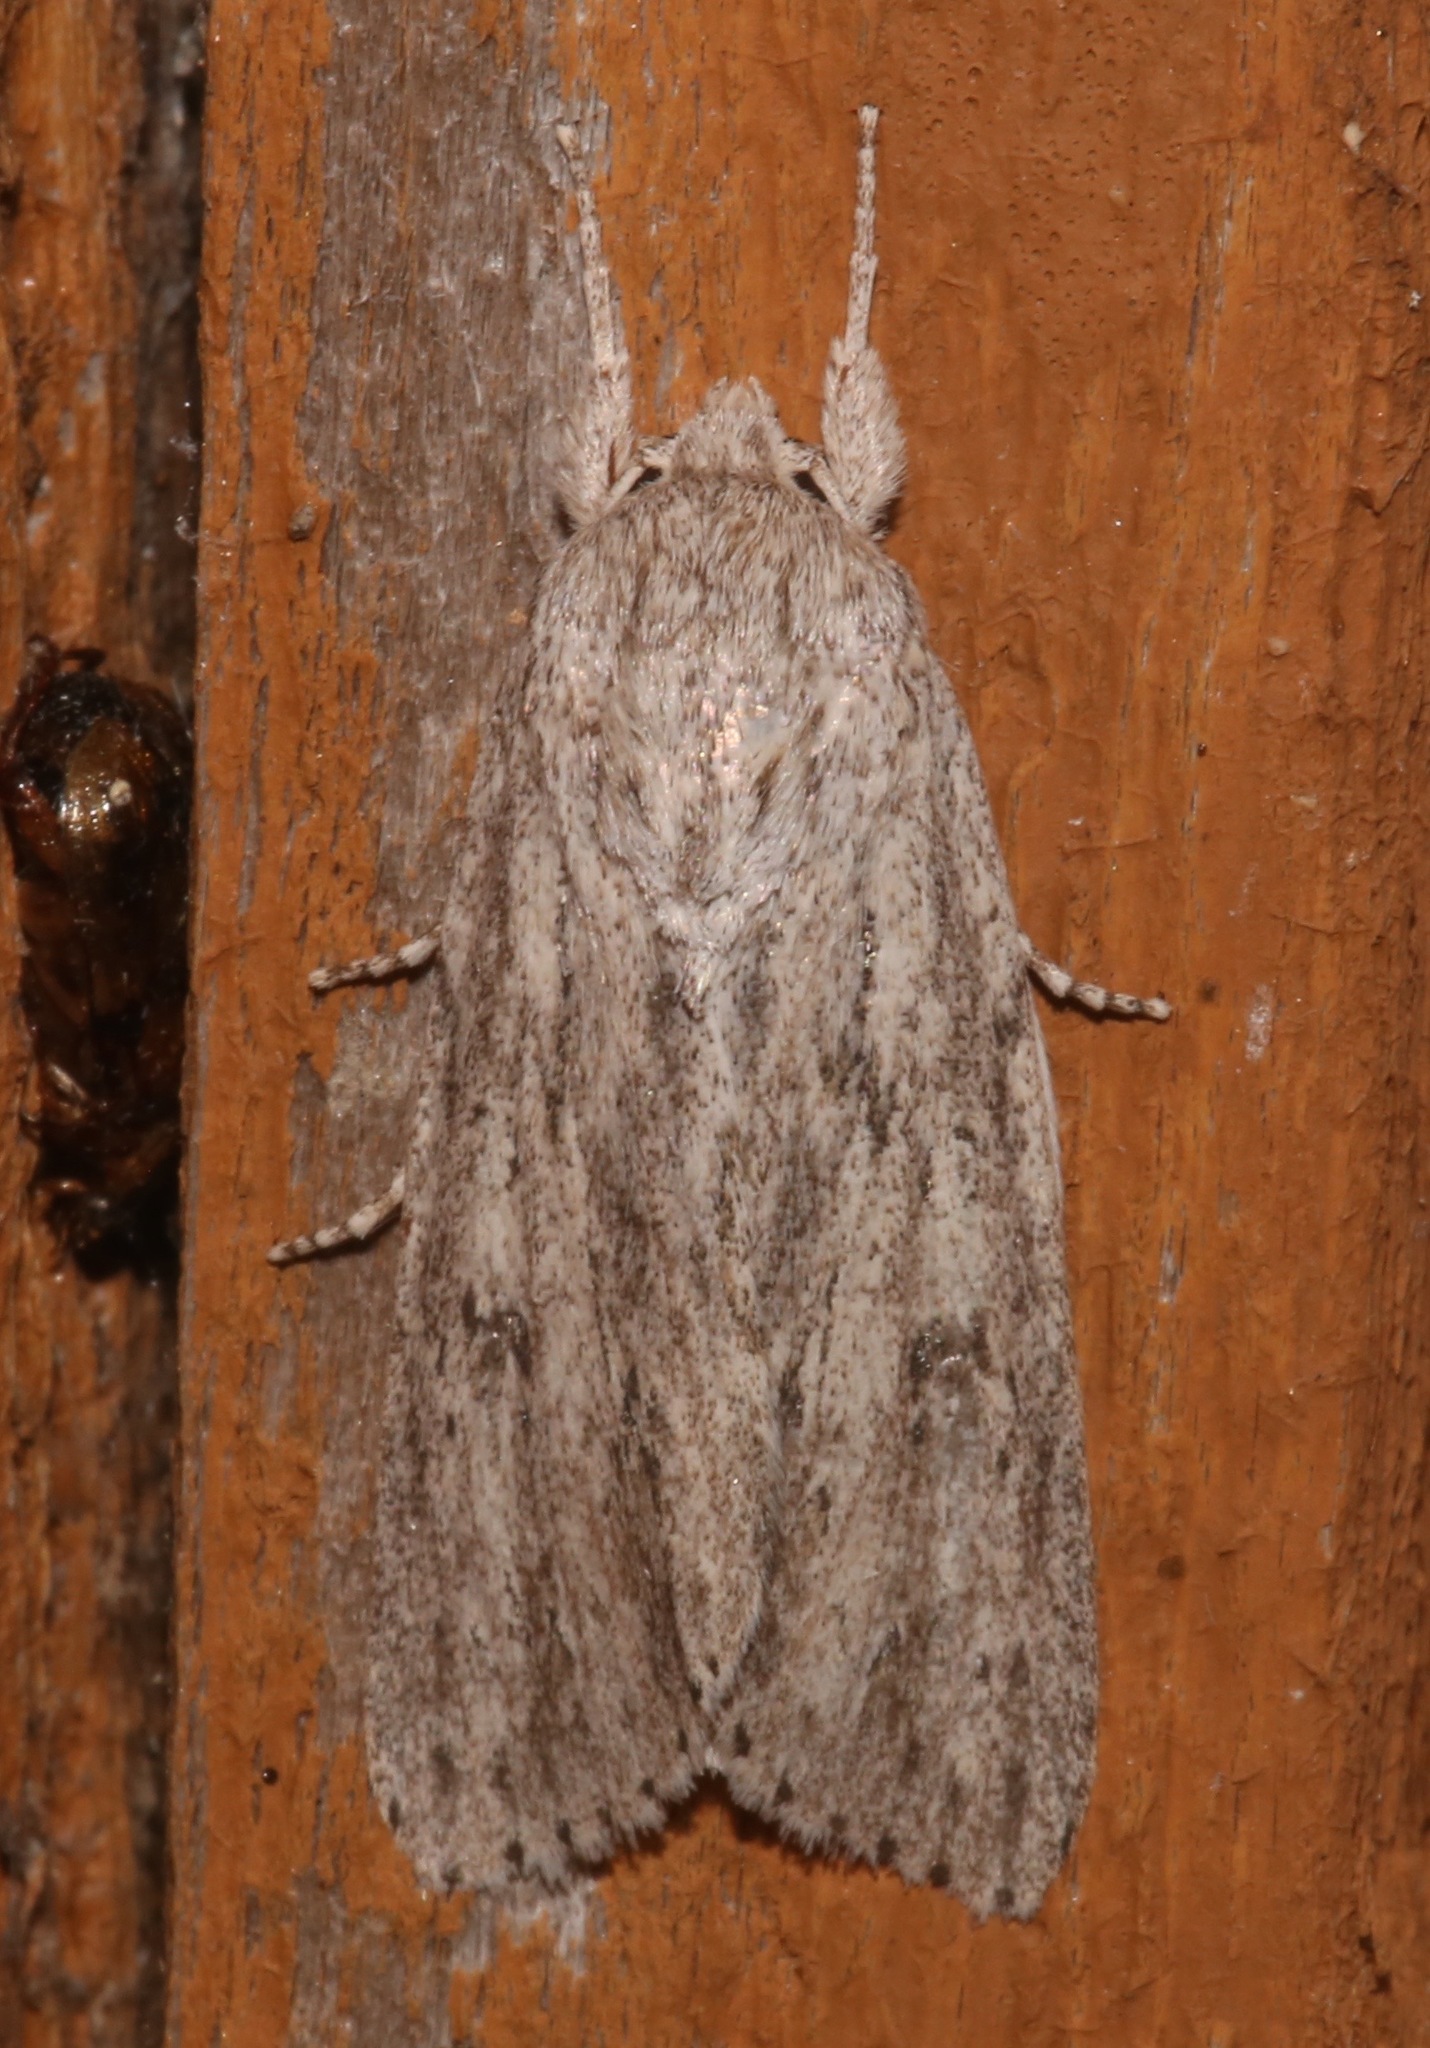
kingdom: Animalia
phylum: Arthropoda
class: Insecta
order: Lepidoptera
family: Noctuidae
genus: Acronicta
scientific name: Acronicta oblinita
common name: Smeared dagger
